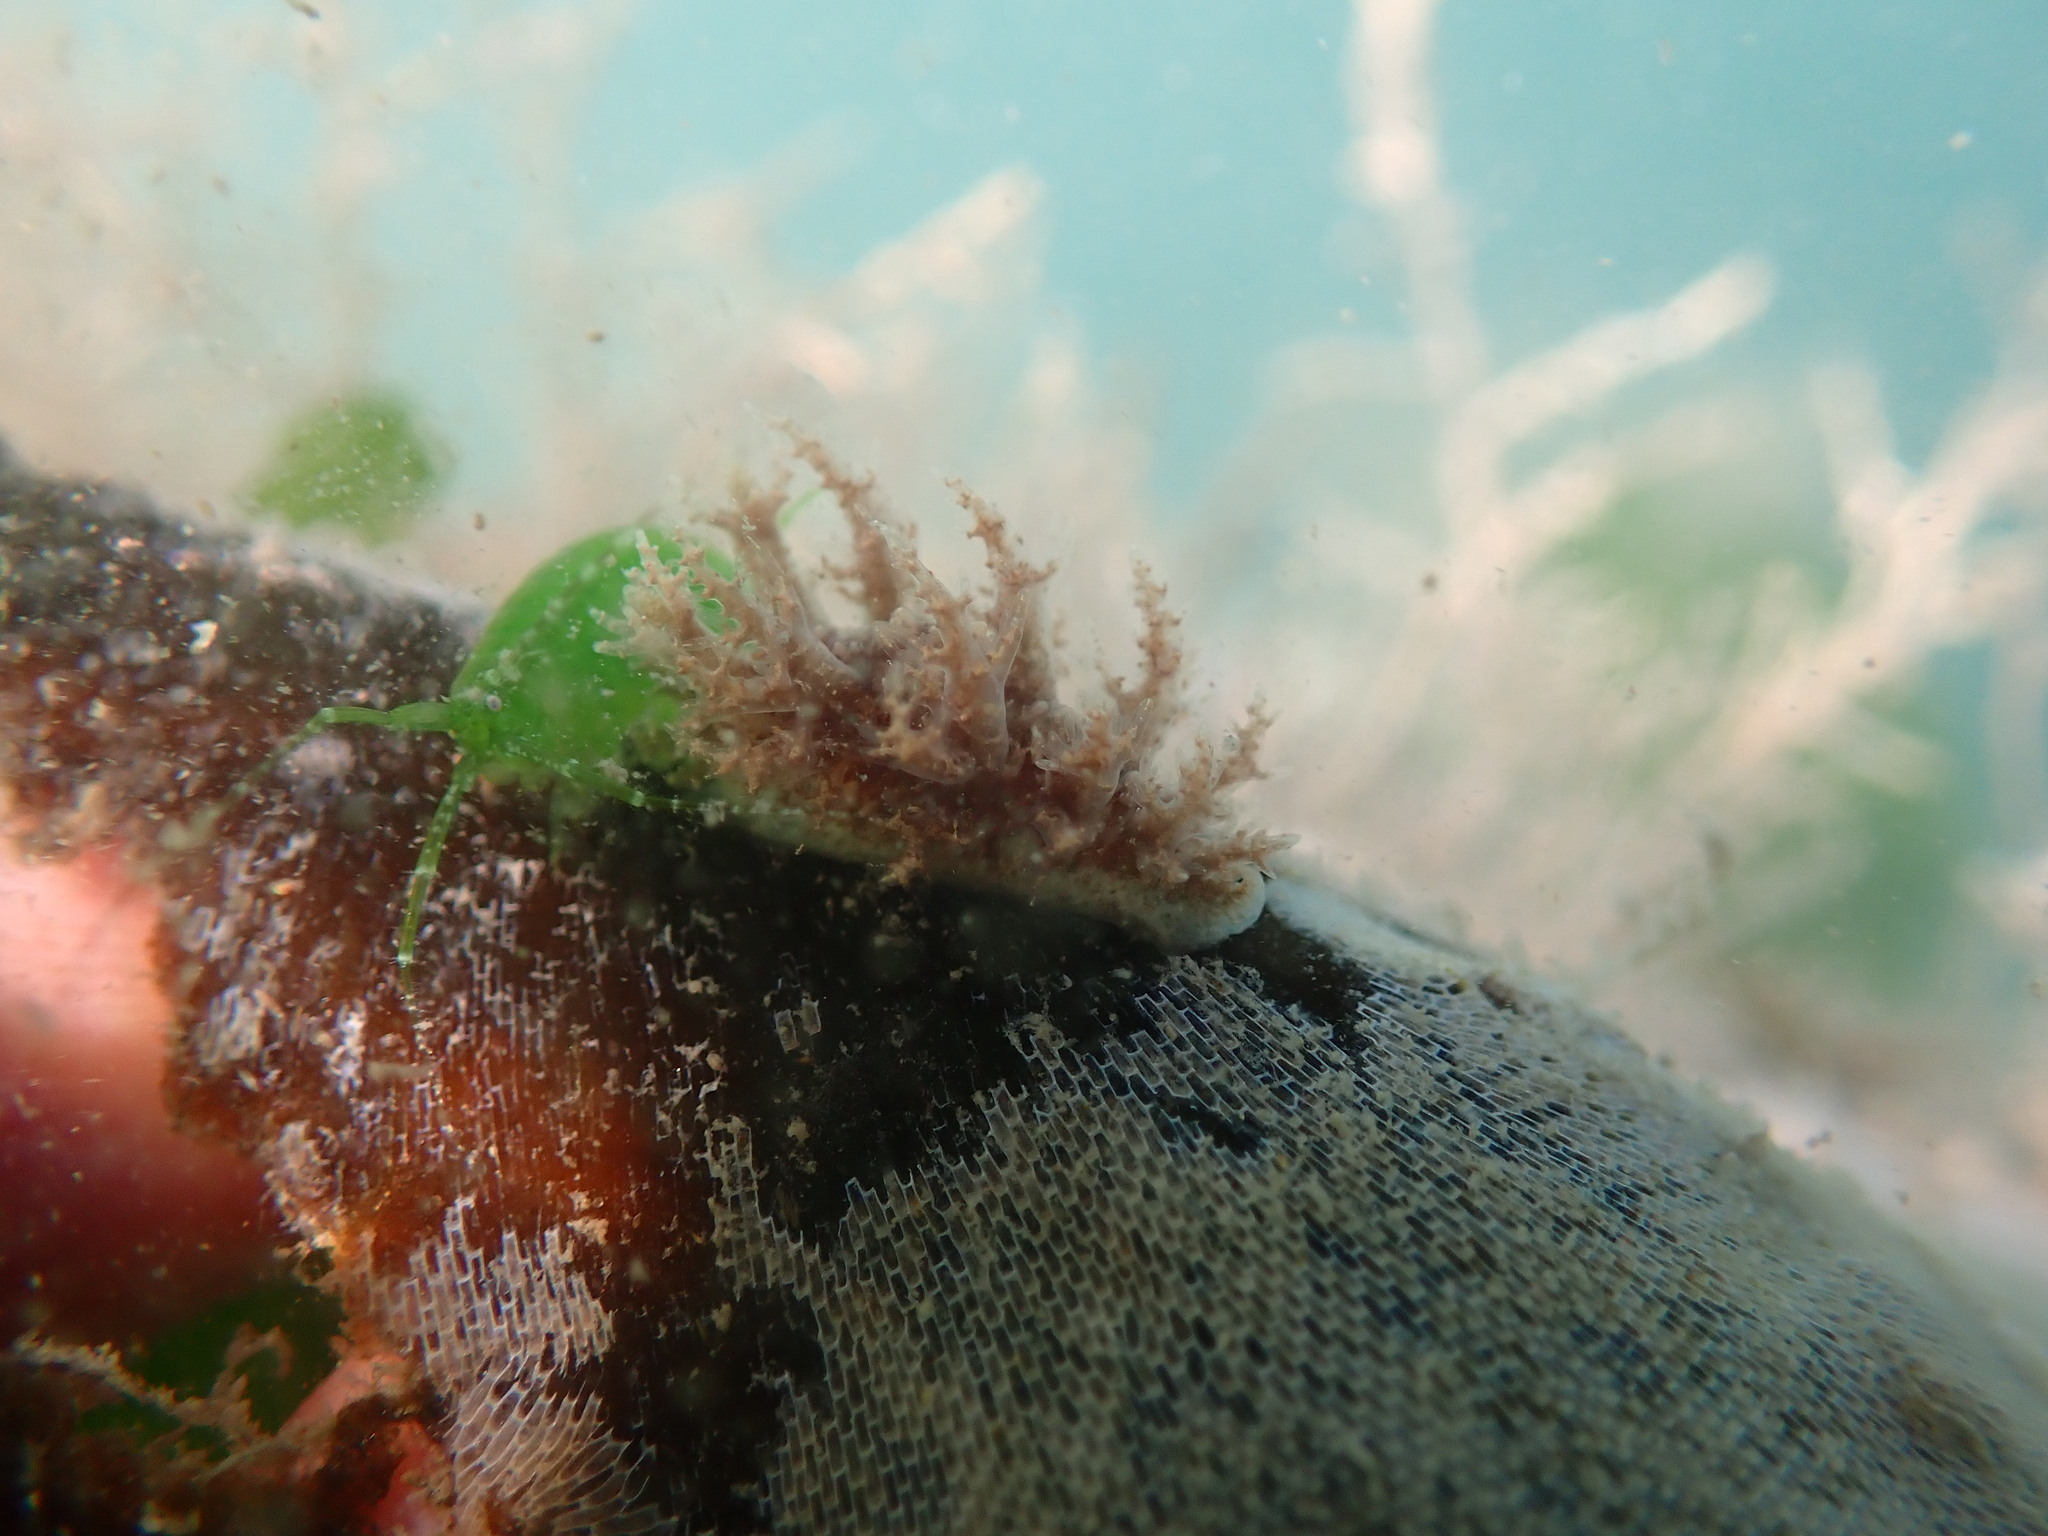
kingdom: Animalia
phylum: Mollusca
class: Gastropoda
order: Nudibranchia
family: Dendronotidae
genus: Dendronotus
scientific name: Dendronotus venustus
